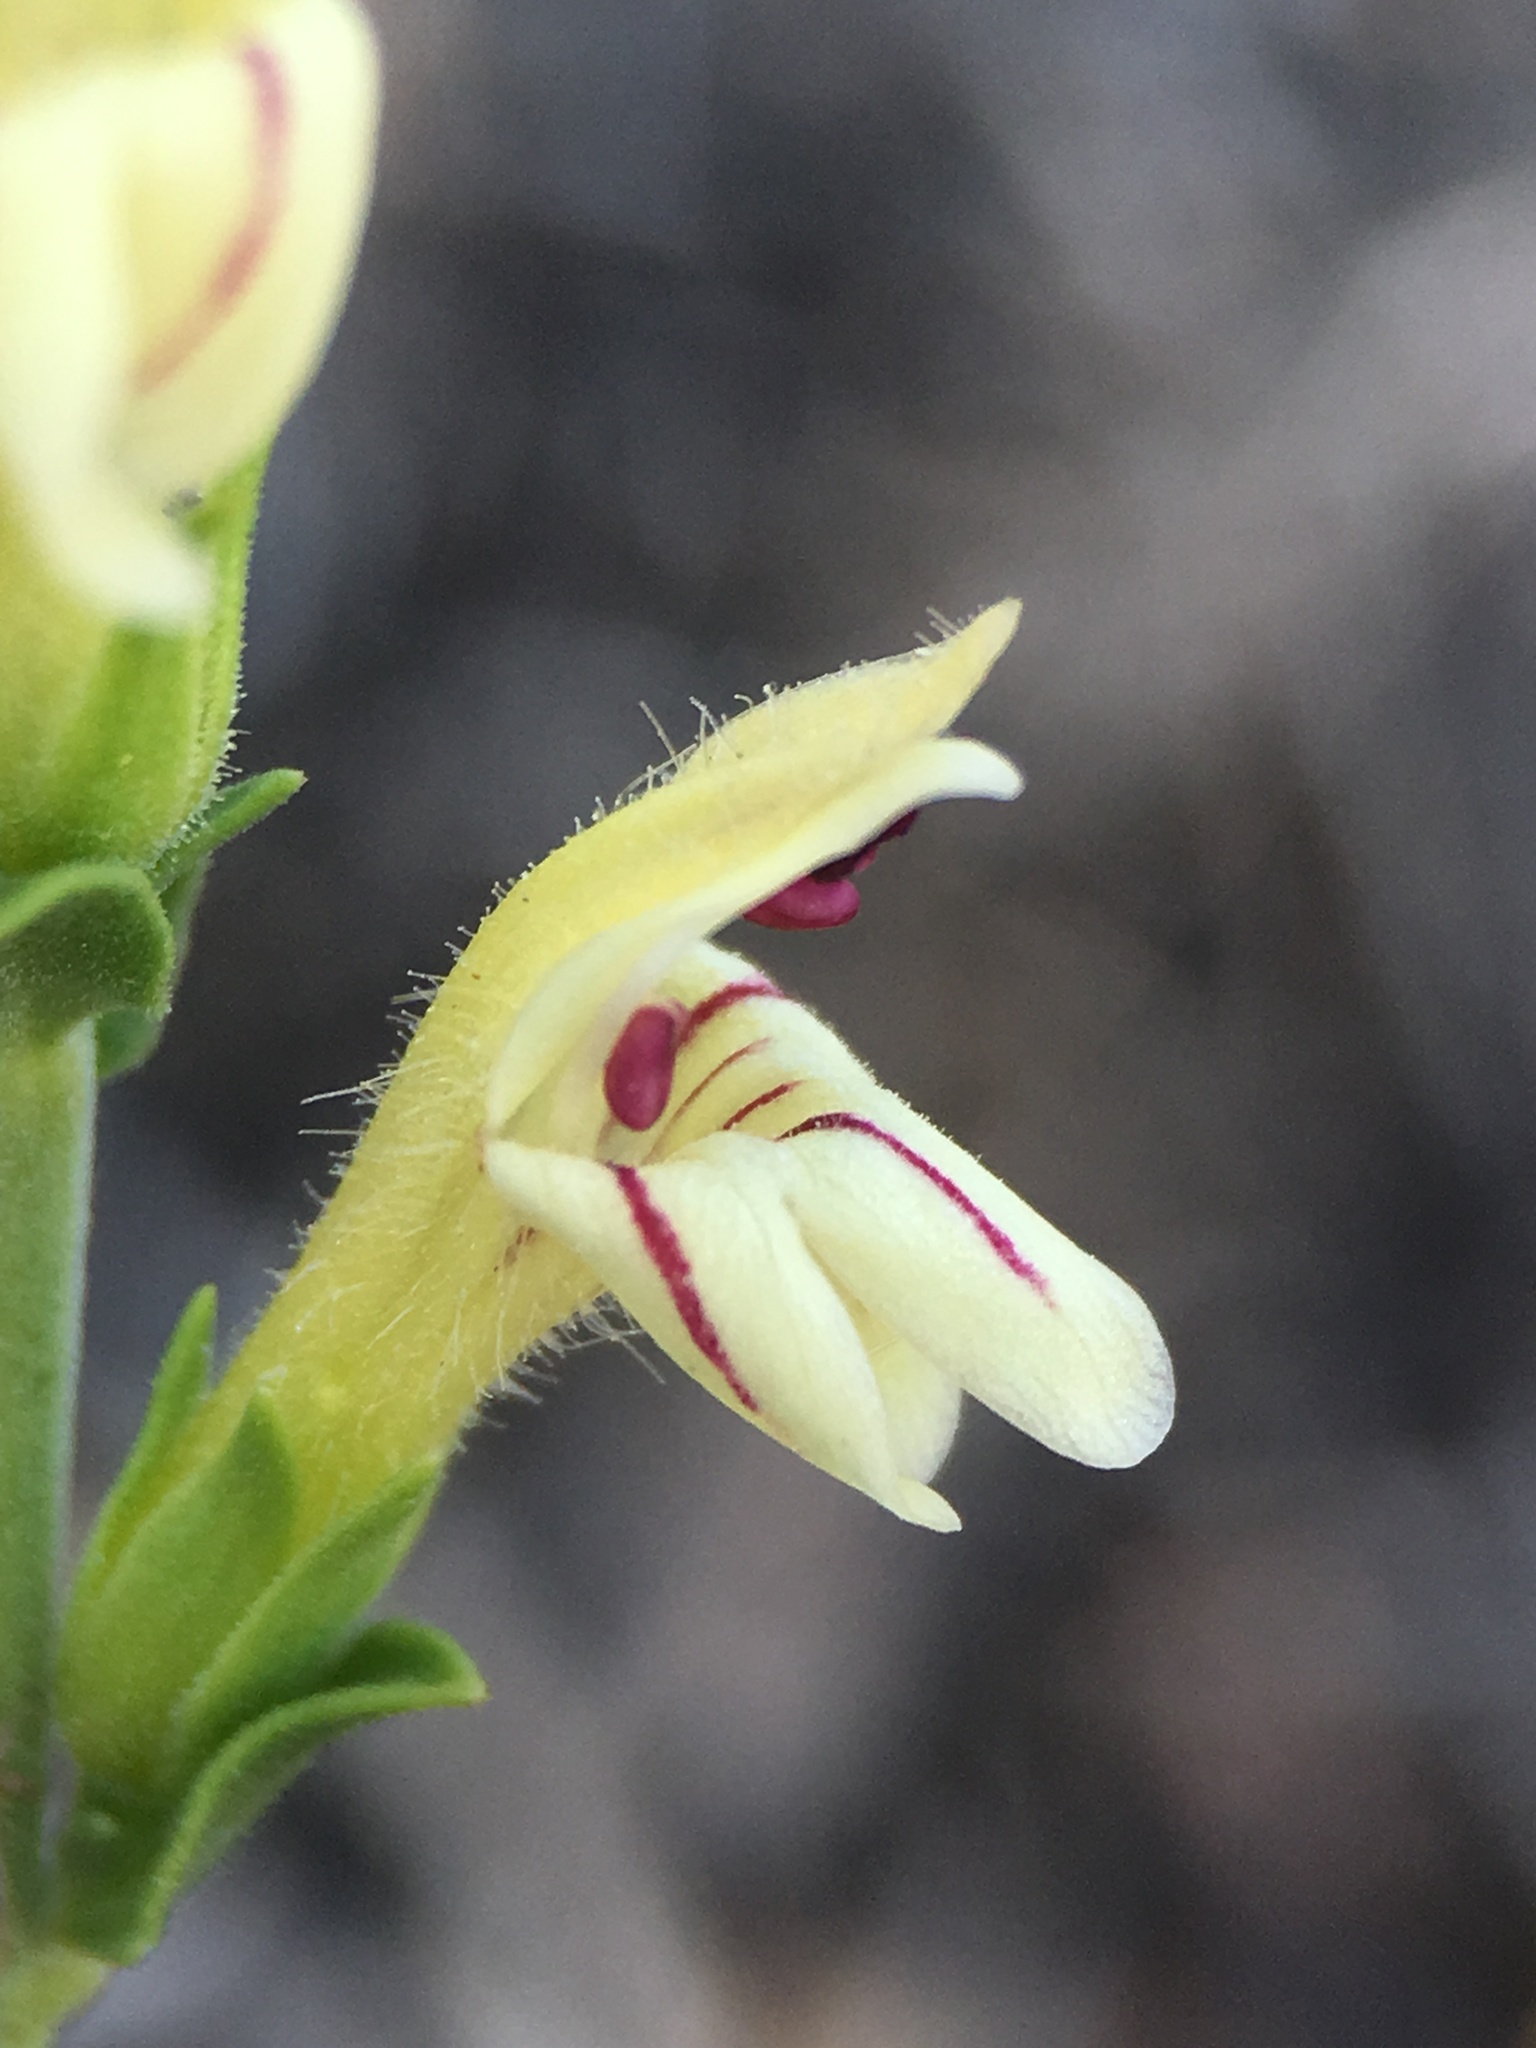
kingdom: Plantae
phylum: Tracheophyta
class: Magnoliopsida
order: Lamiales
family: Plantaginaceae
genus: Keckiella
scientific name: Keckiella rothrockii
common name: Rothrock's keckiella
